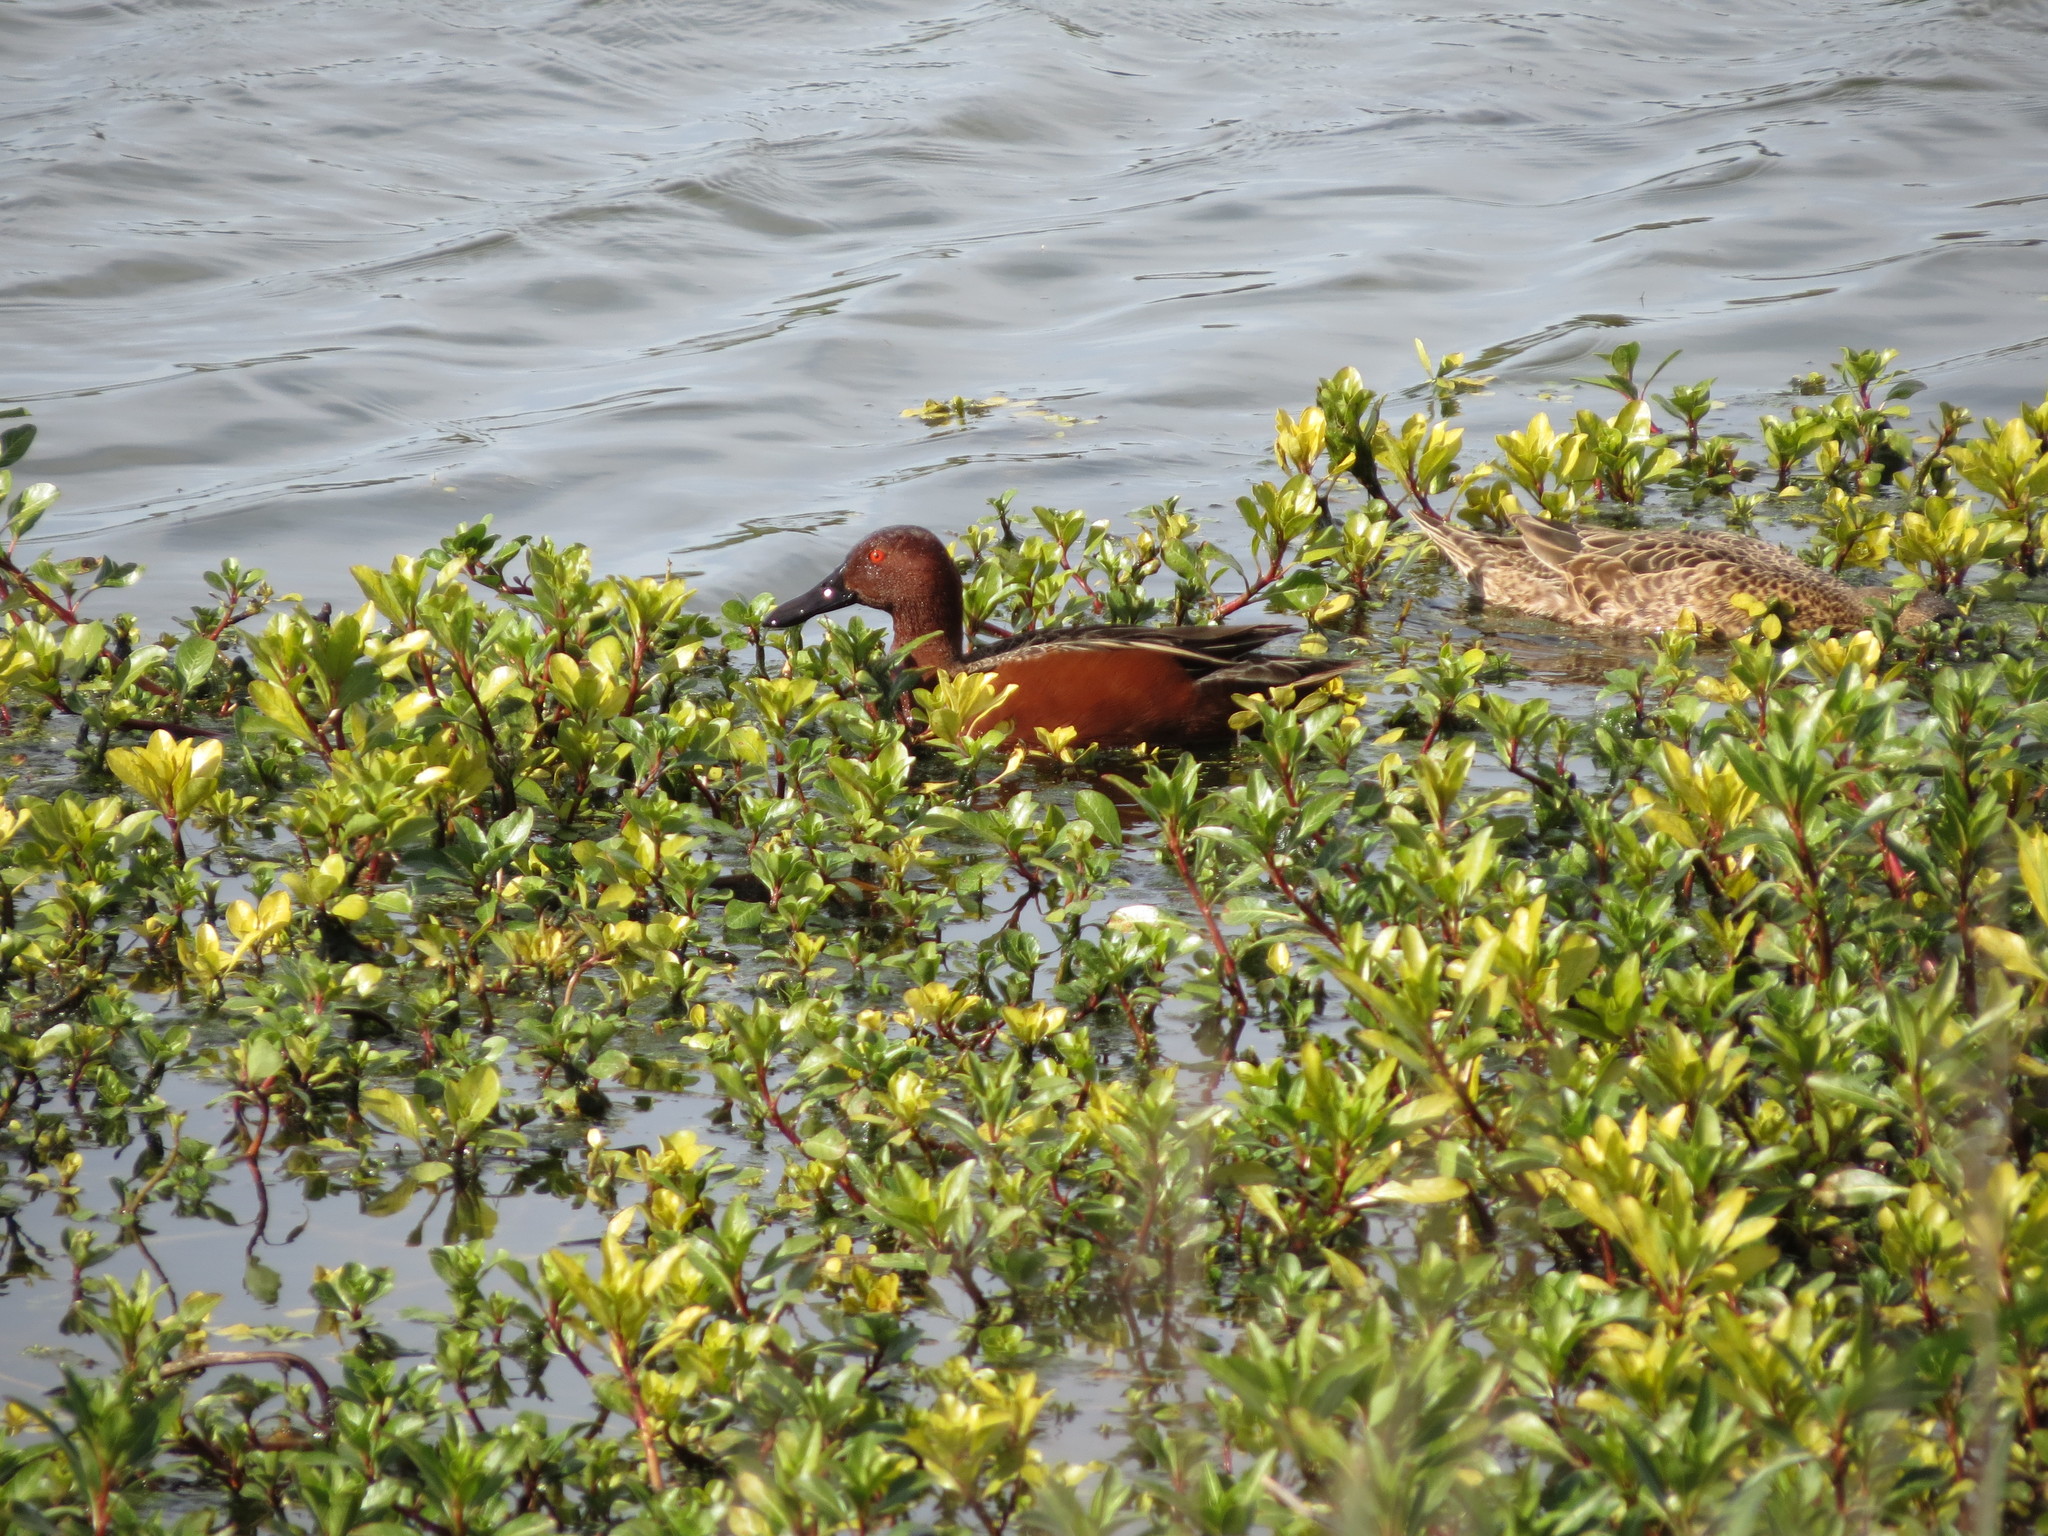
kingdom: Animalia
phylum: Chordata
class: Aves
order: Anseriformes
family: Anatidae
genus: Spatula
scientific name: Spatula cyanoptera
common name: Cinnamon teal
